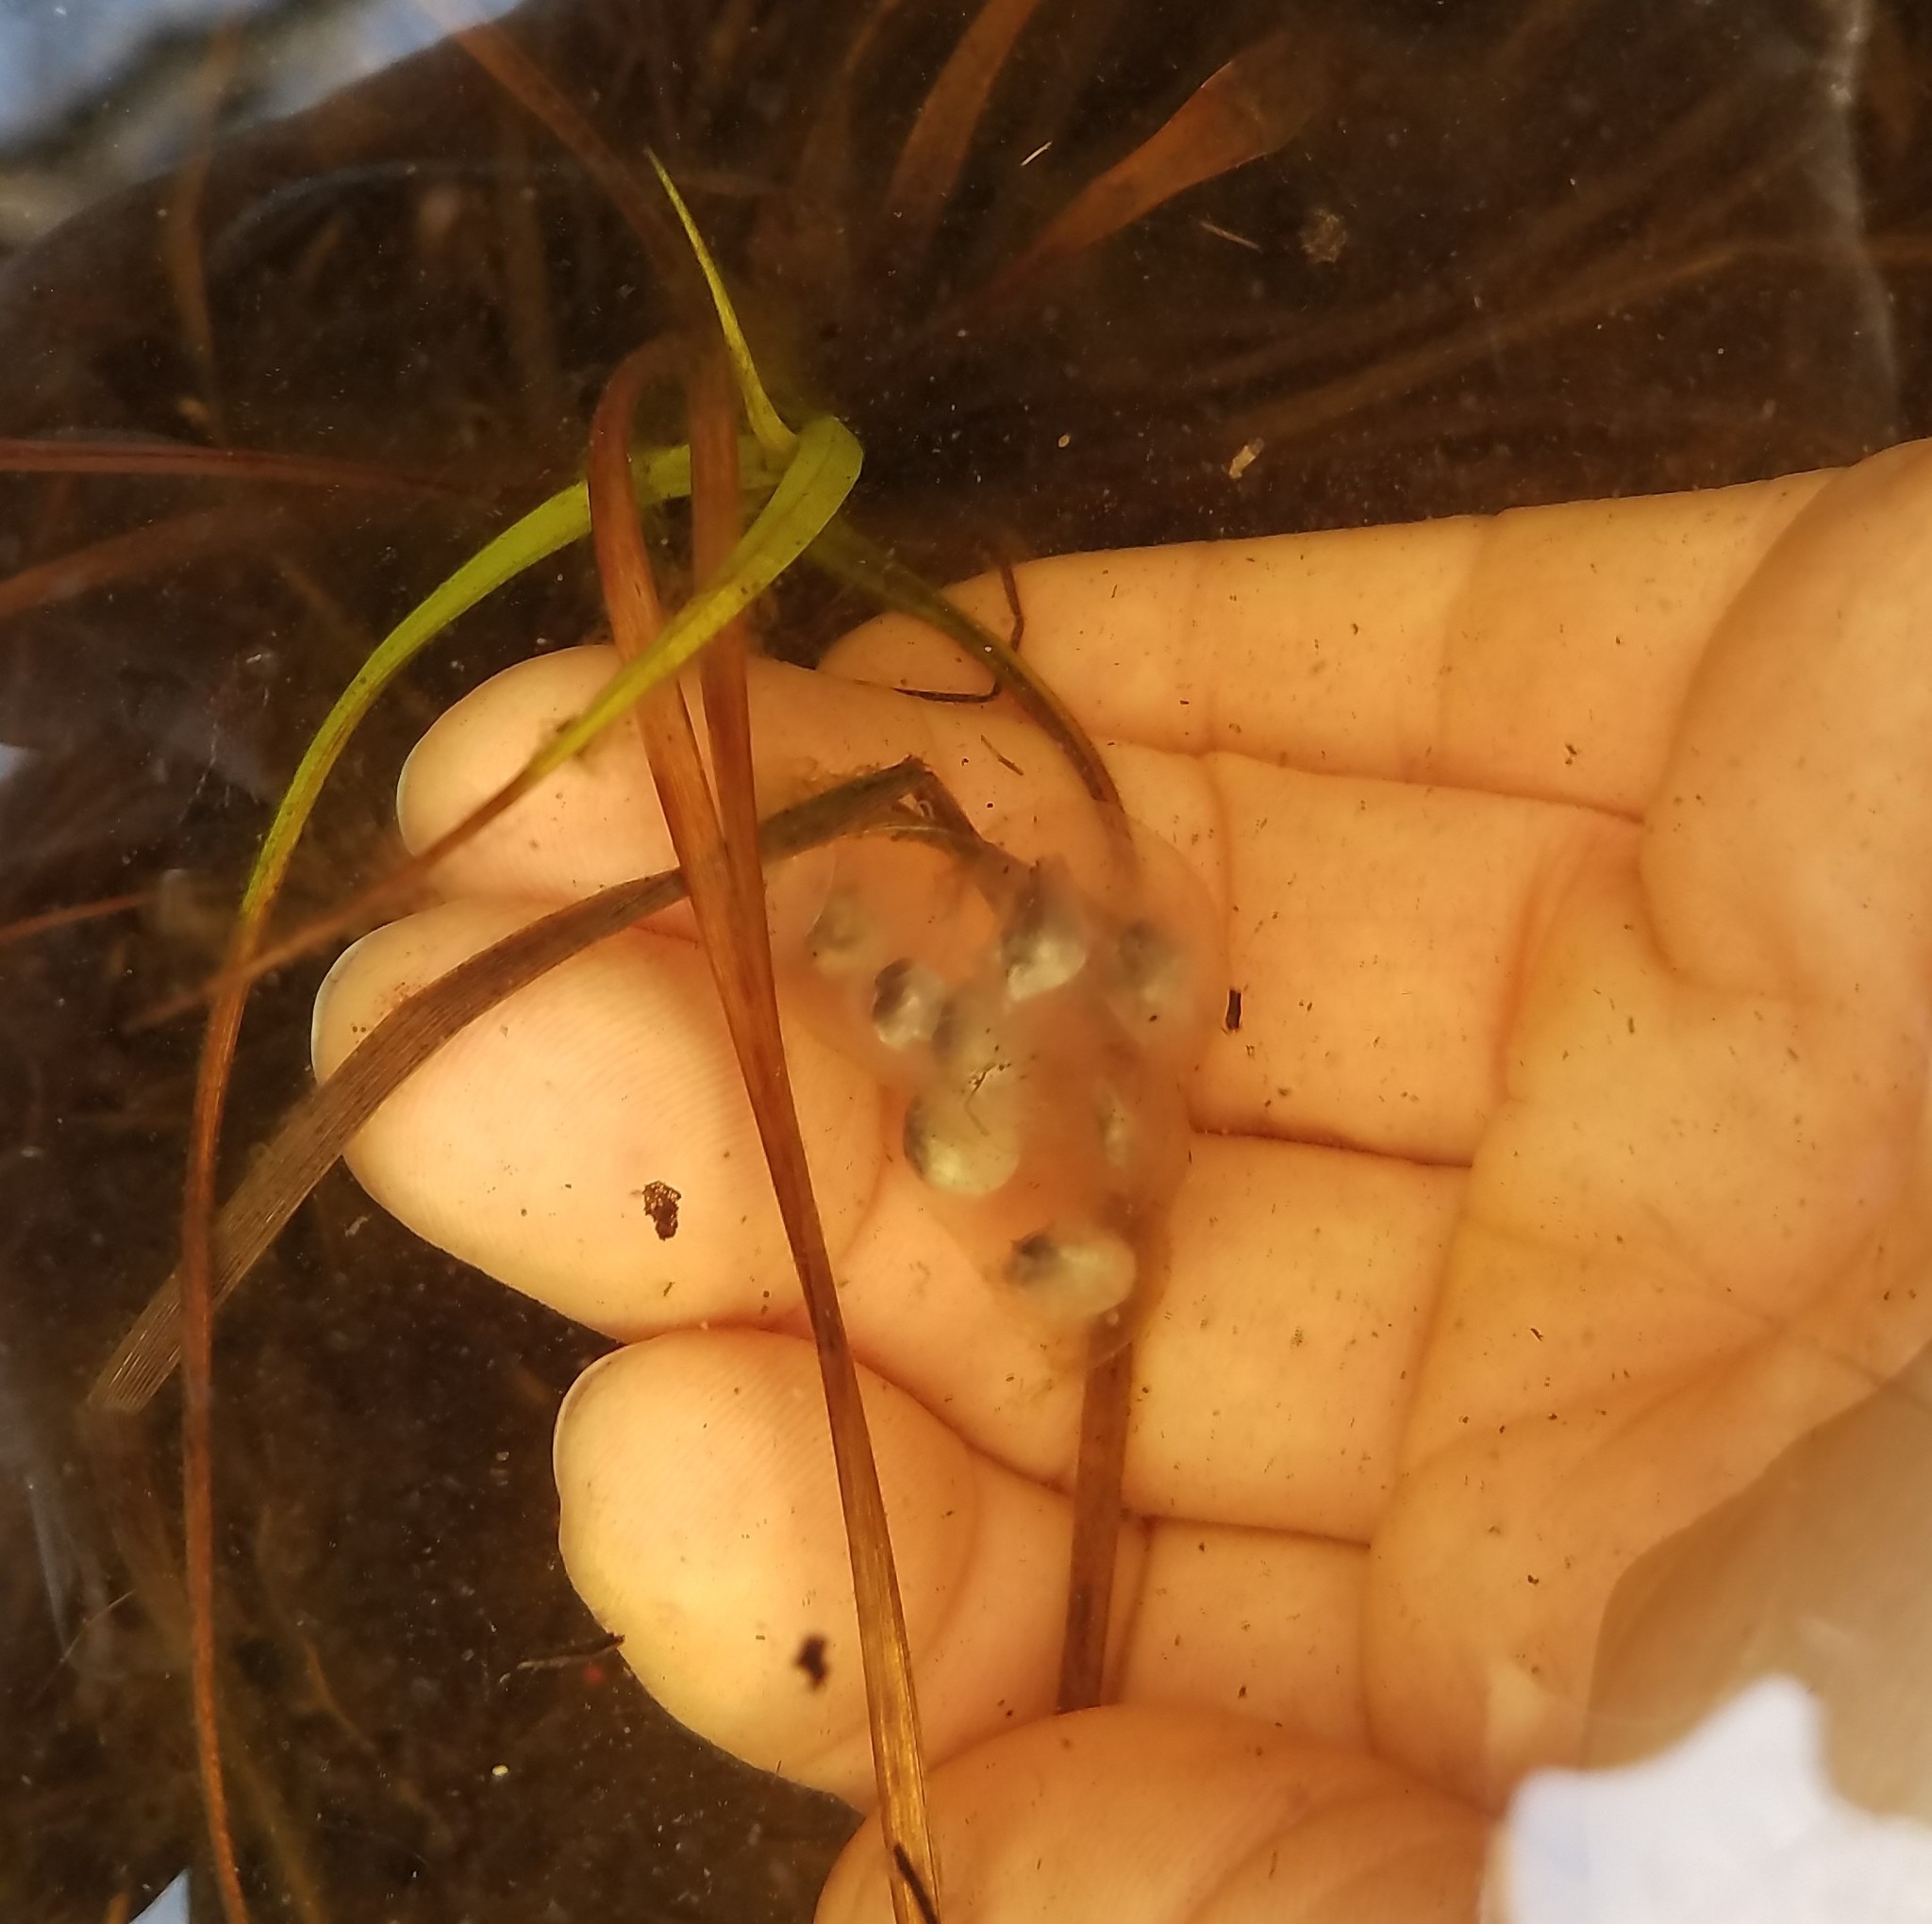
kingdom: Animalia
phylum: Chordata
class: Amphibia
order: Caudata
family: Ambystomatidae
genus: Ambystoma
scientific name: Ambystoma unisexual
